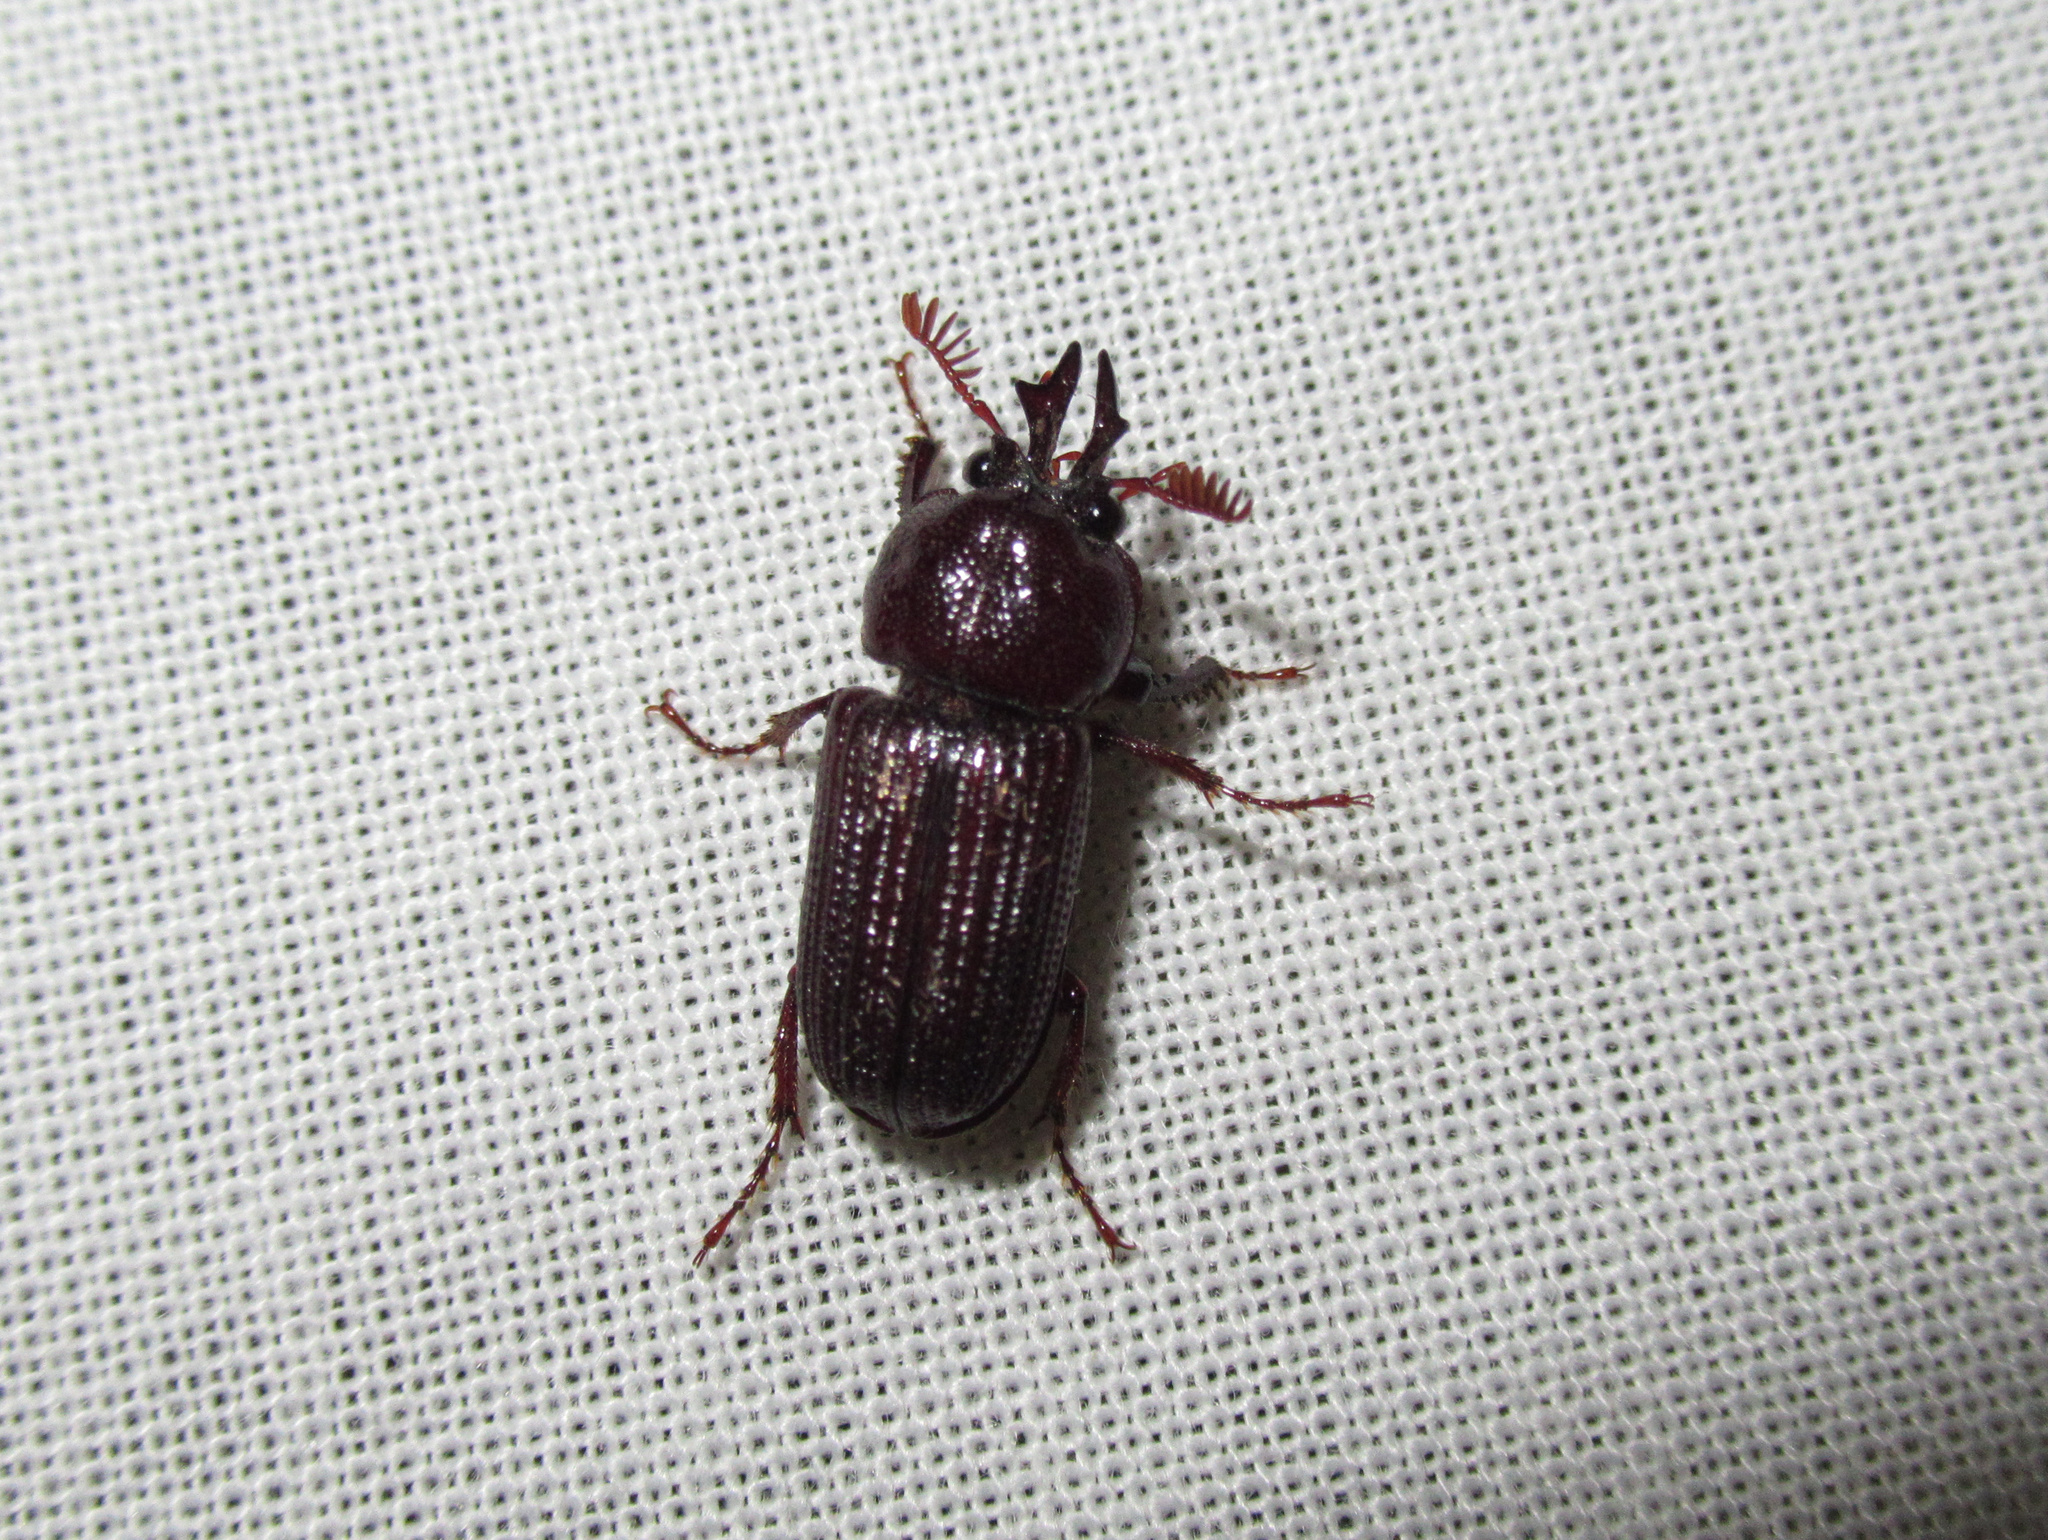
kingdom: Animalia
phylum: Arthropoda
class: Insecta
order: Coleoptera
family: Lucanidae
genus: Syndesus
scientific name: Syndesus cornutus
